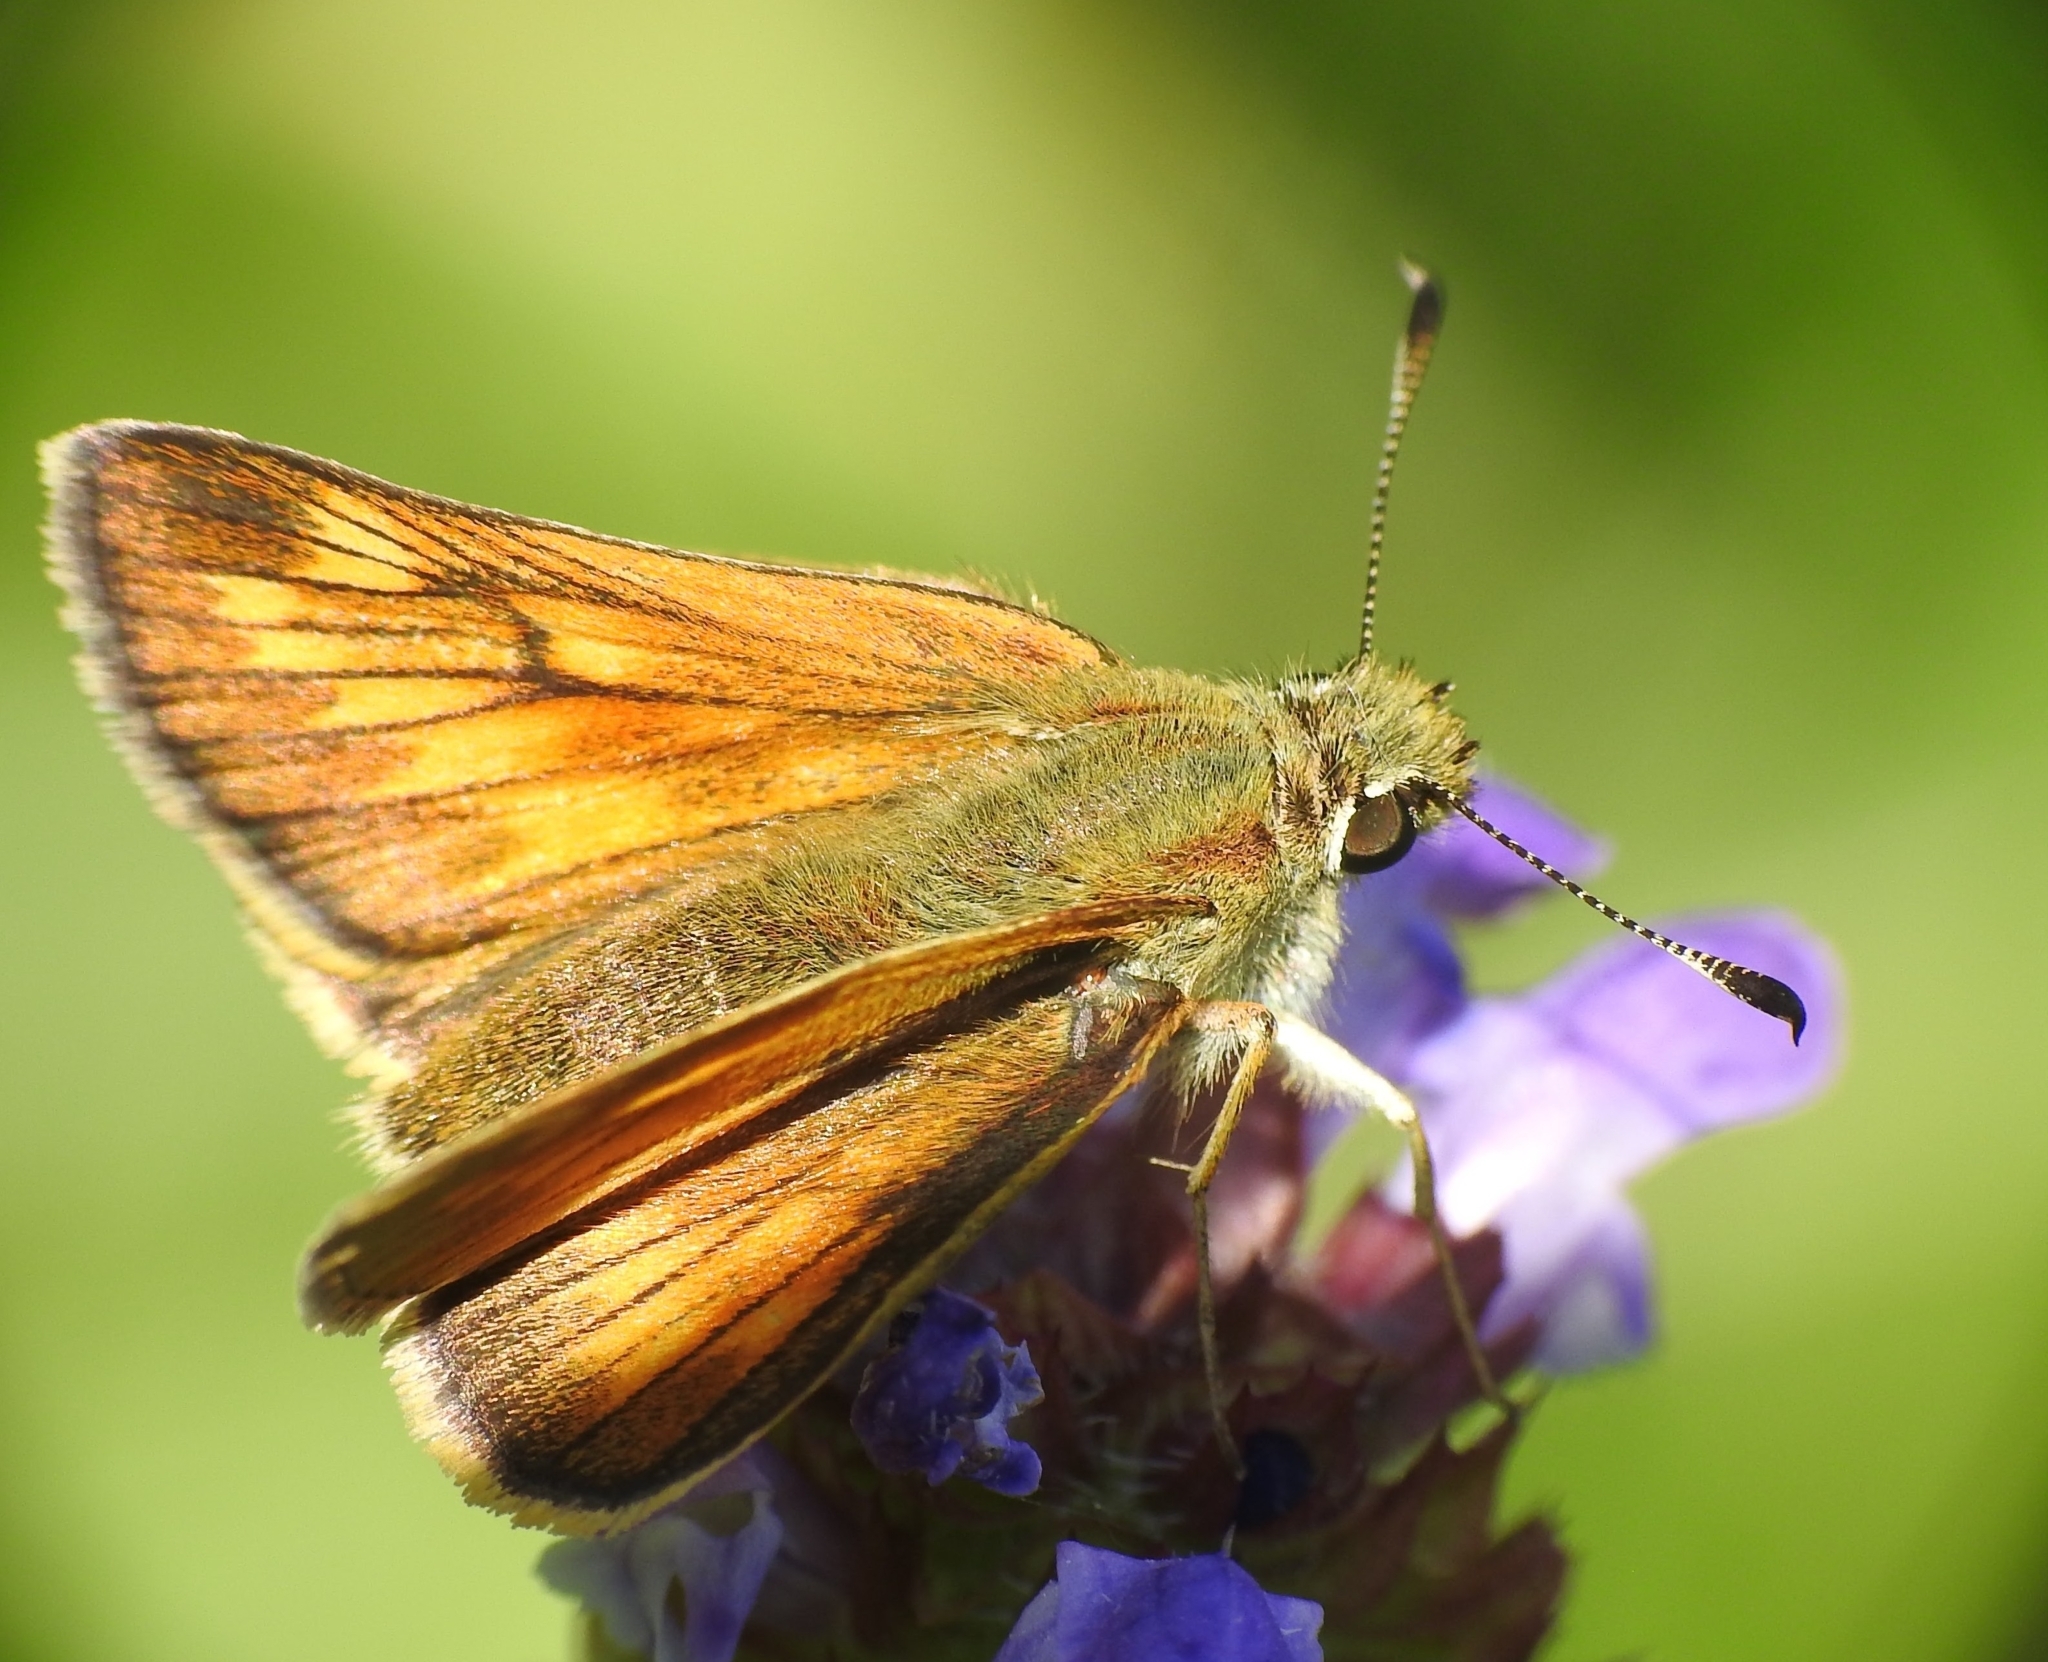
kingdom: Animalia
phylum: Arthropoda
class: Insecta
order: Lepidoptera
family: Hesperiidae
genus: Ochlodes
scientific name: Ochlodes venata
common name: Large skipper
